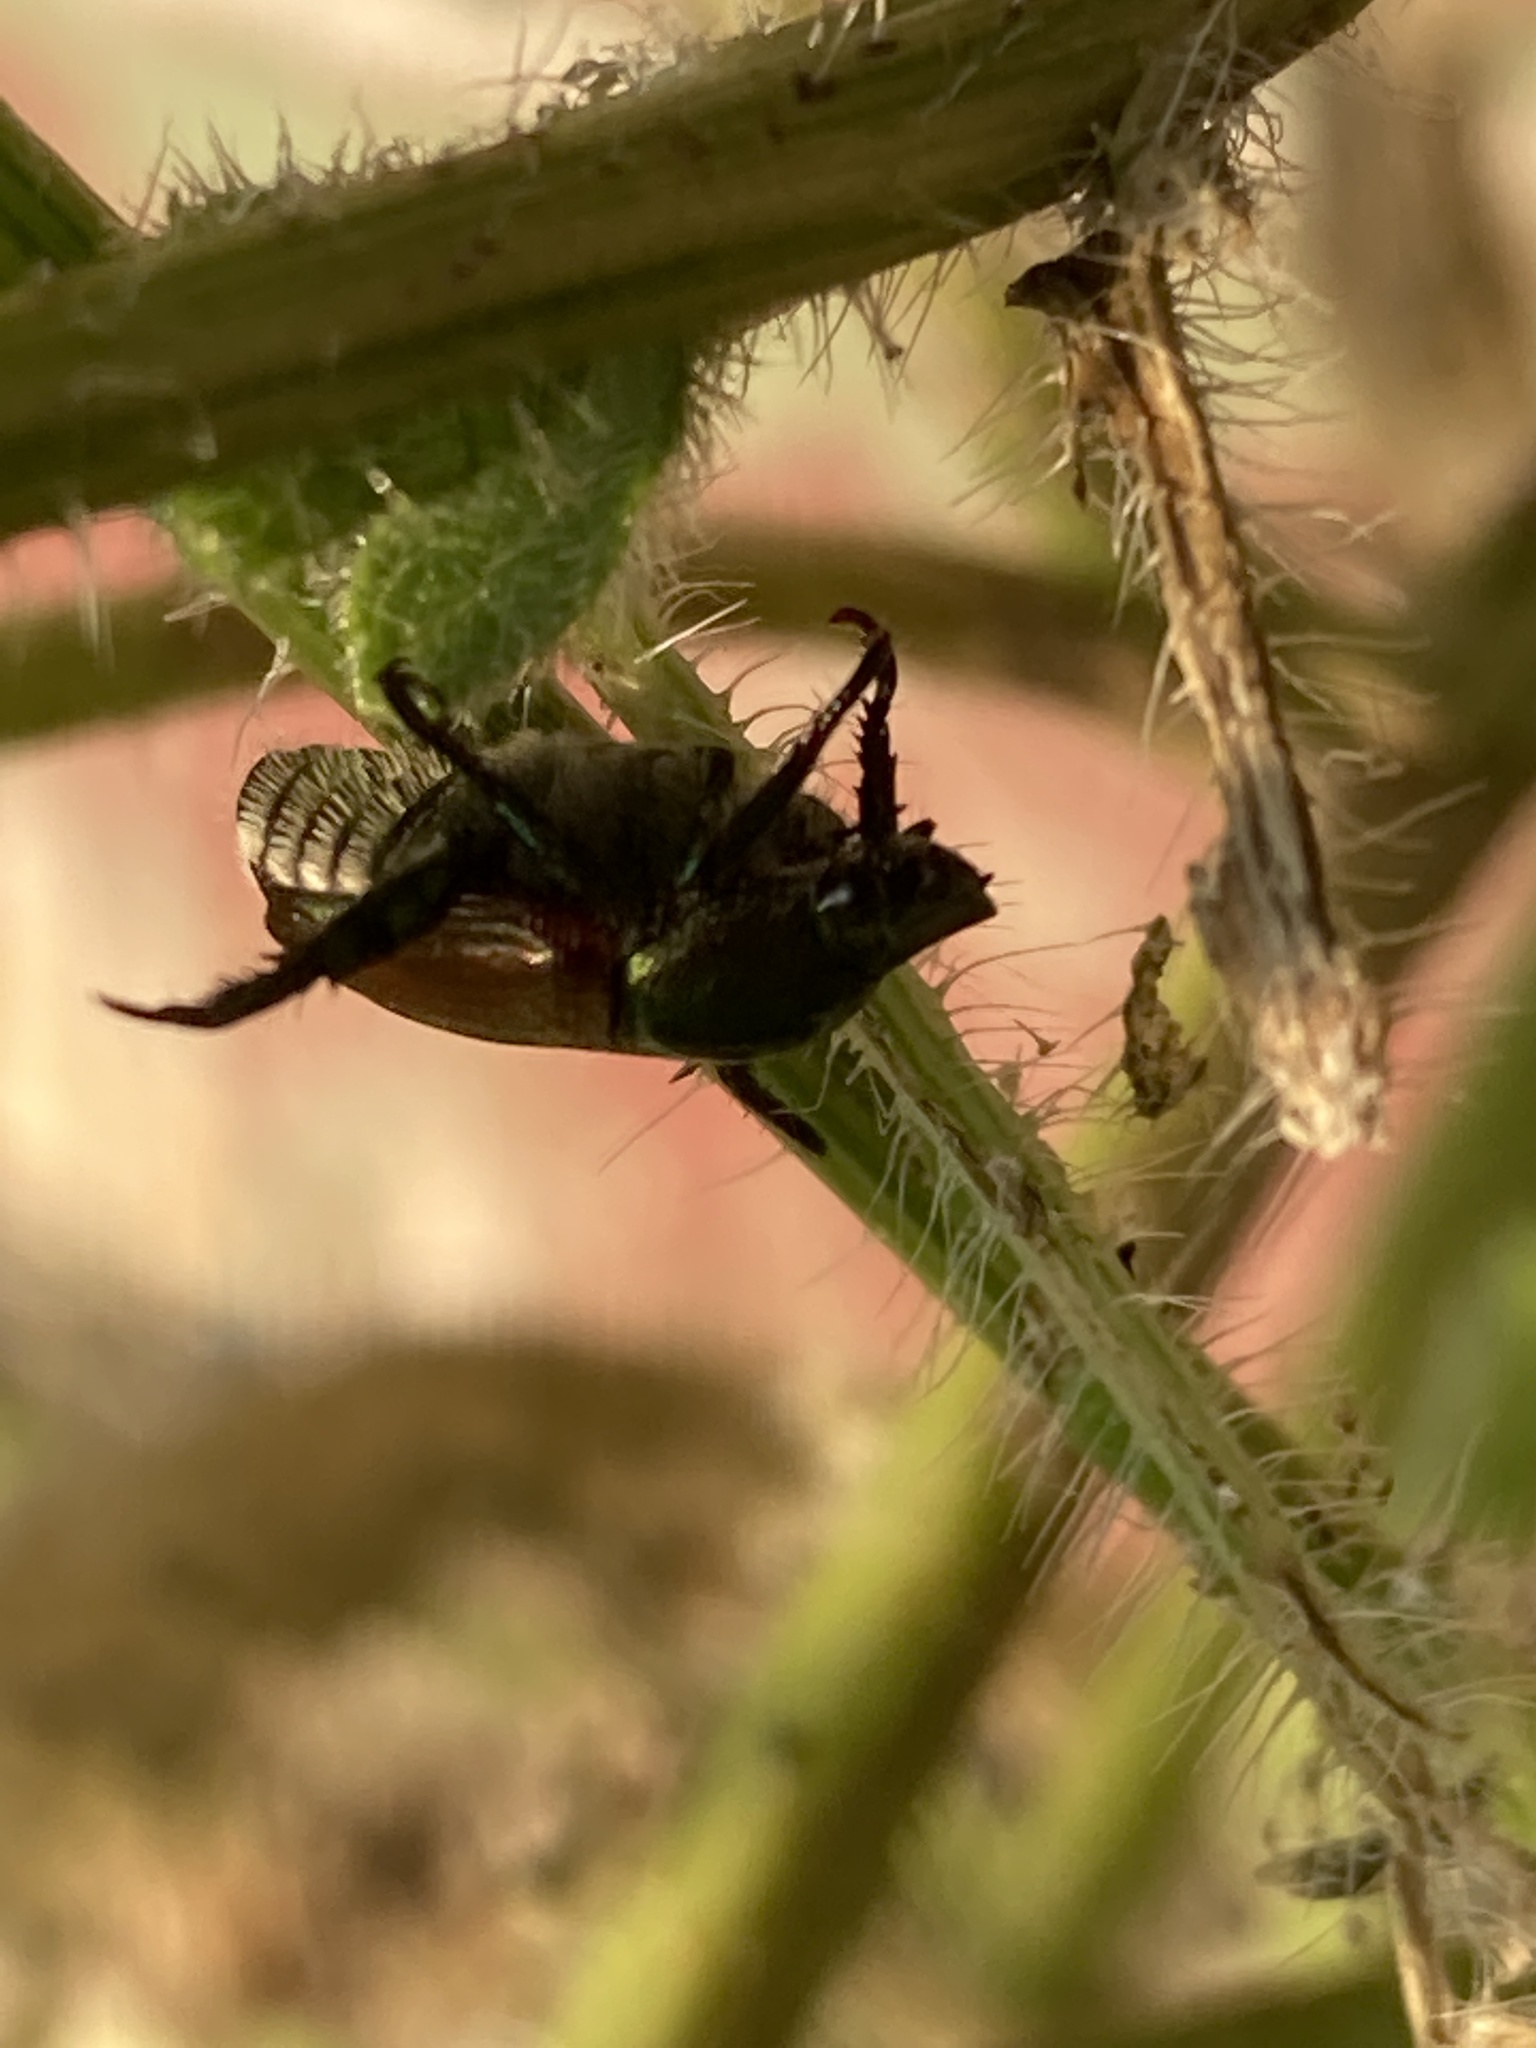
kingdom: Animalia
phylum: Arthropoda
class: Insecta
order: Coleoptera
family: Scarabaeidae
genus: Popillia
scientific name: Popillia japonica
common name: Japanese beetle
